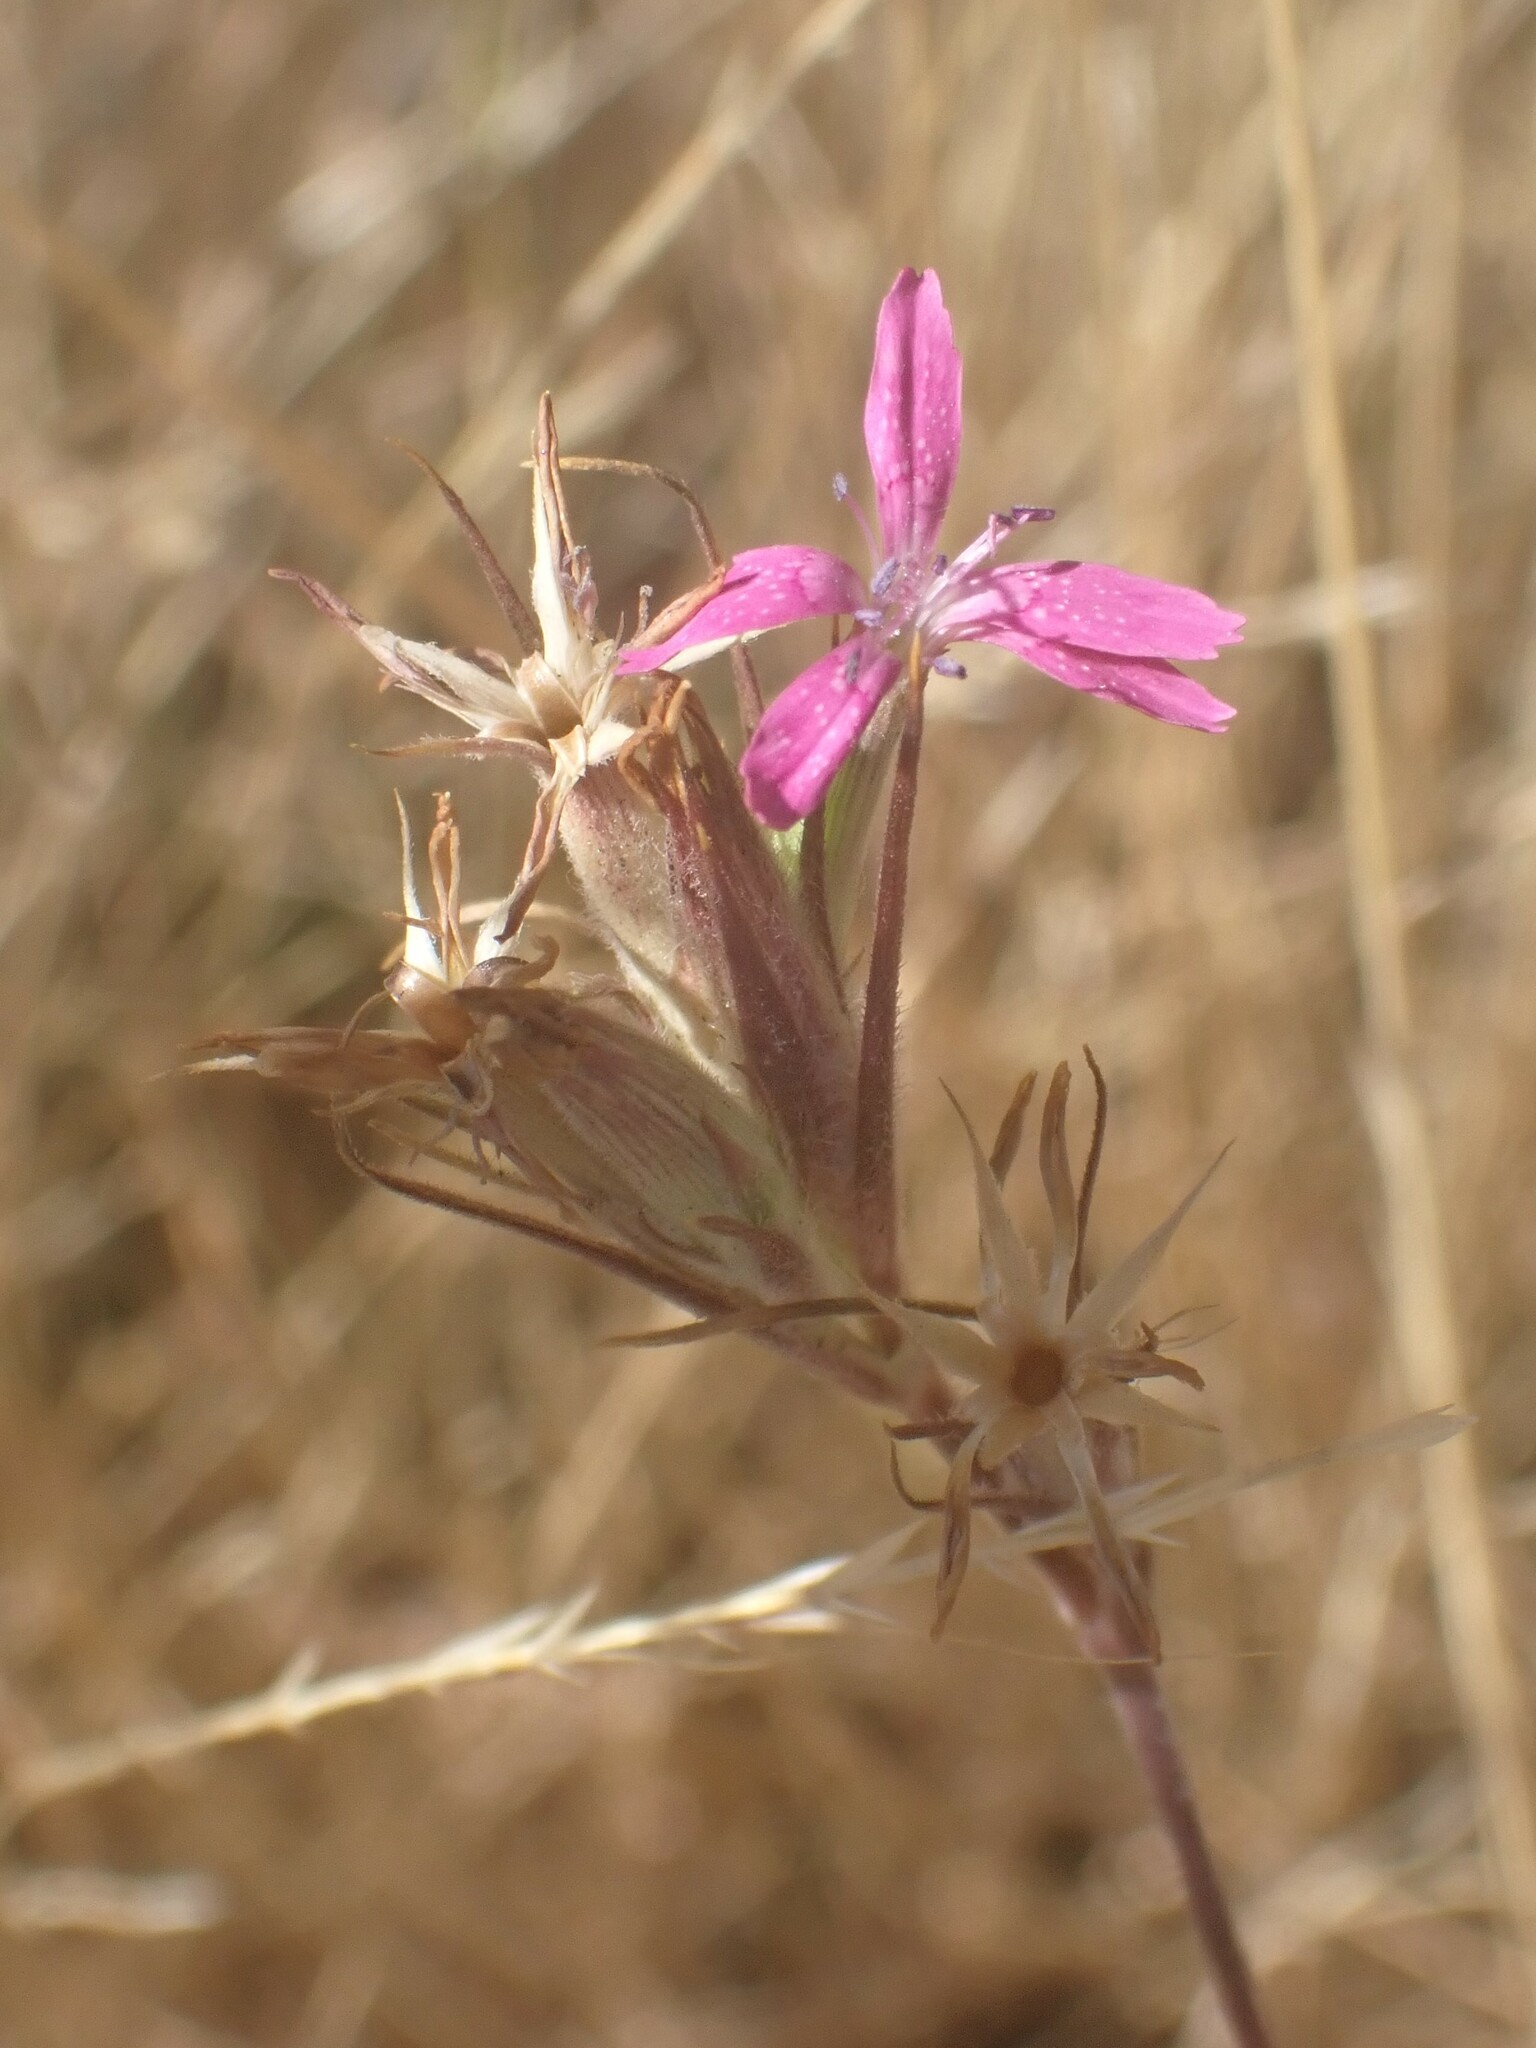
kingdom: Plantae
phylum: Tracheophyta
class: Magnoliopsida
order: Caryophyllales
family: Caryophyllaceae
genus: Dianthus
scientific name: Dianthus armeria
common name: Deptford pink
